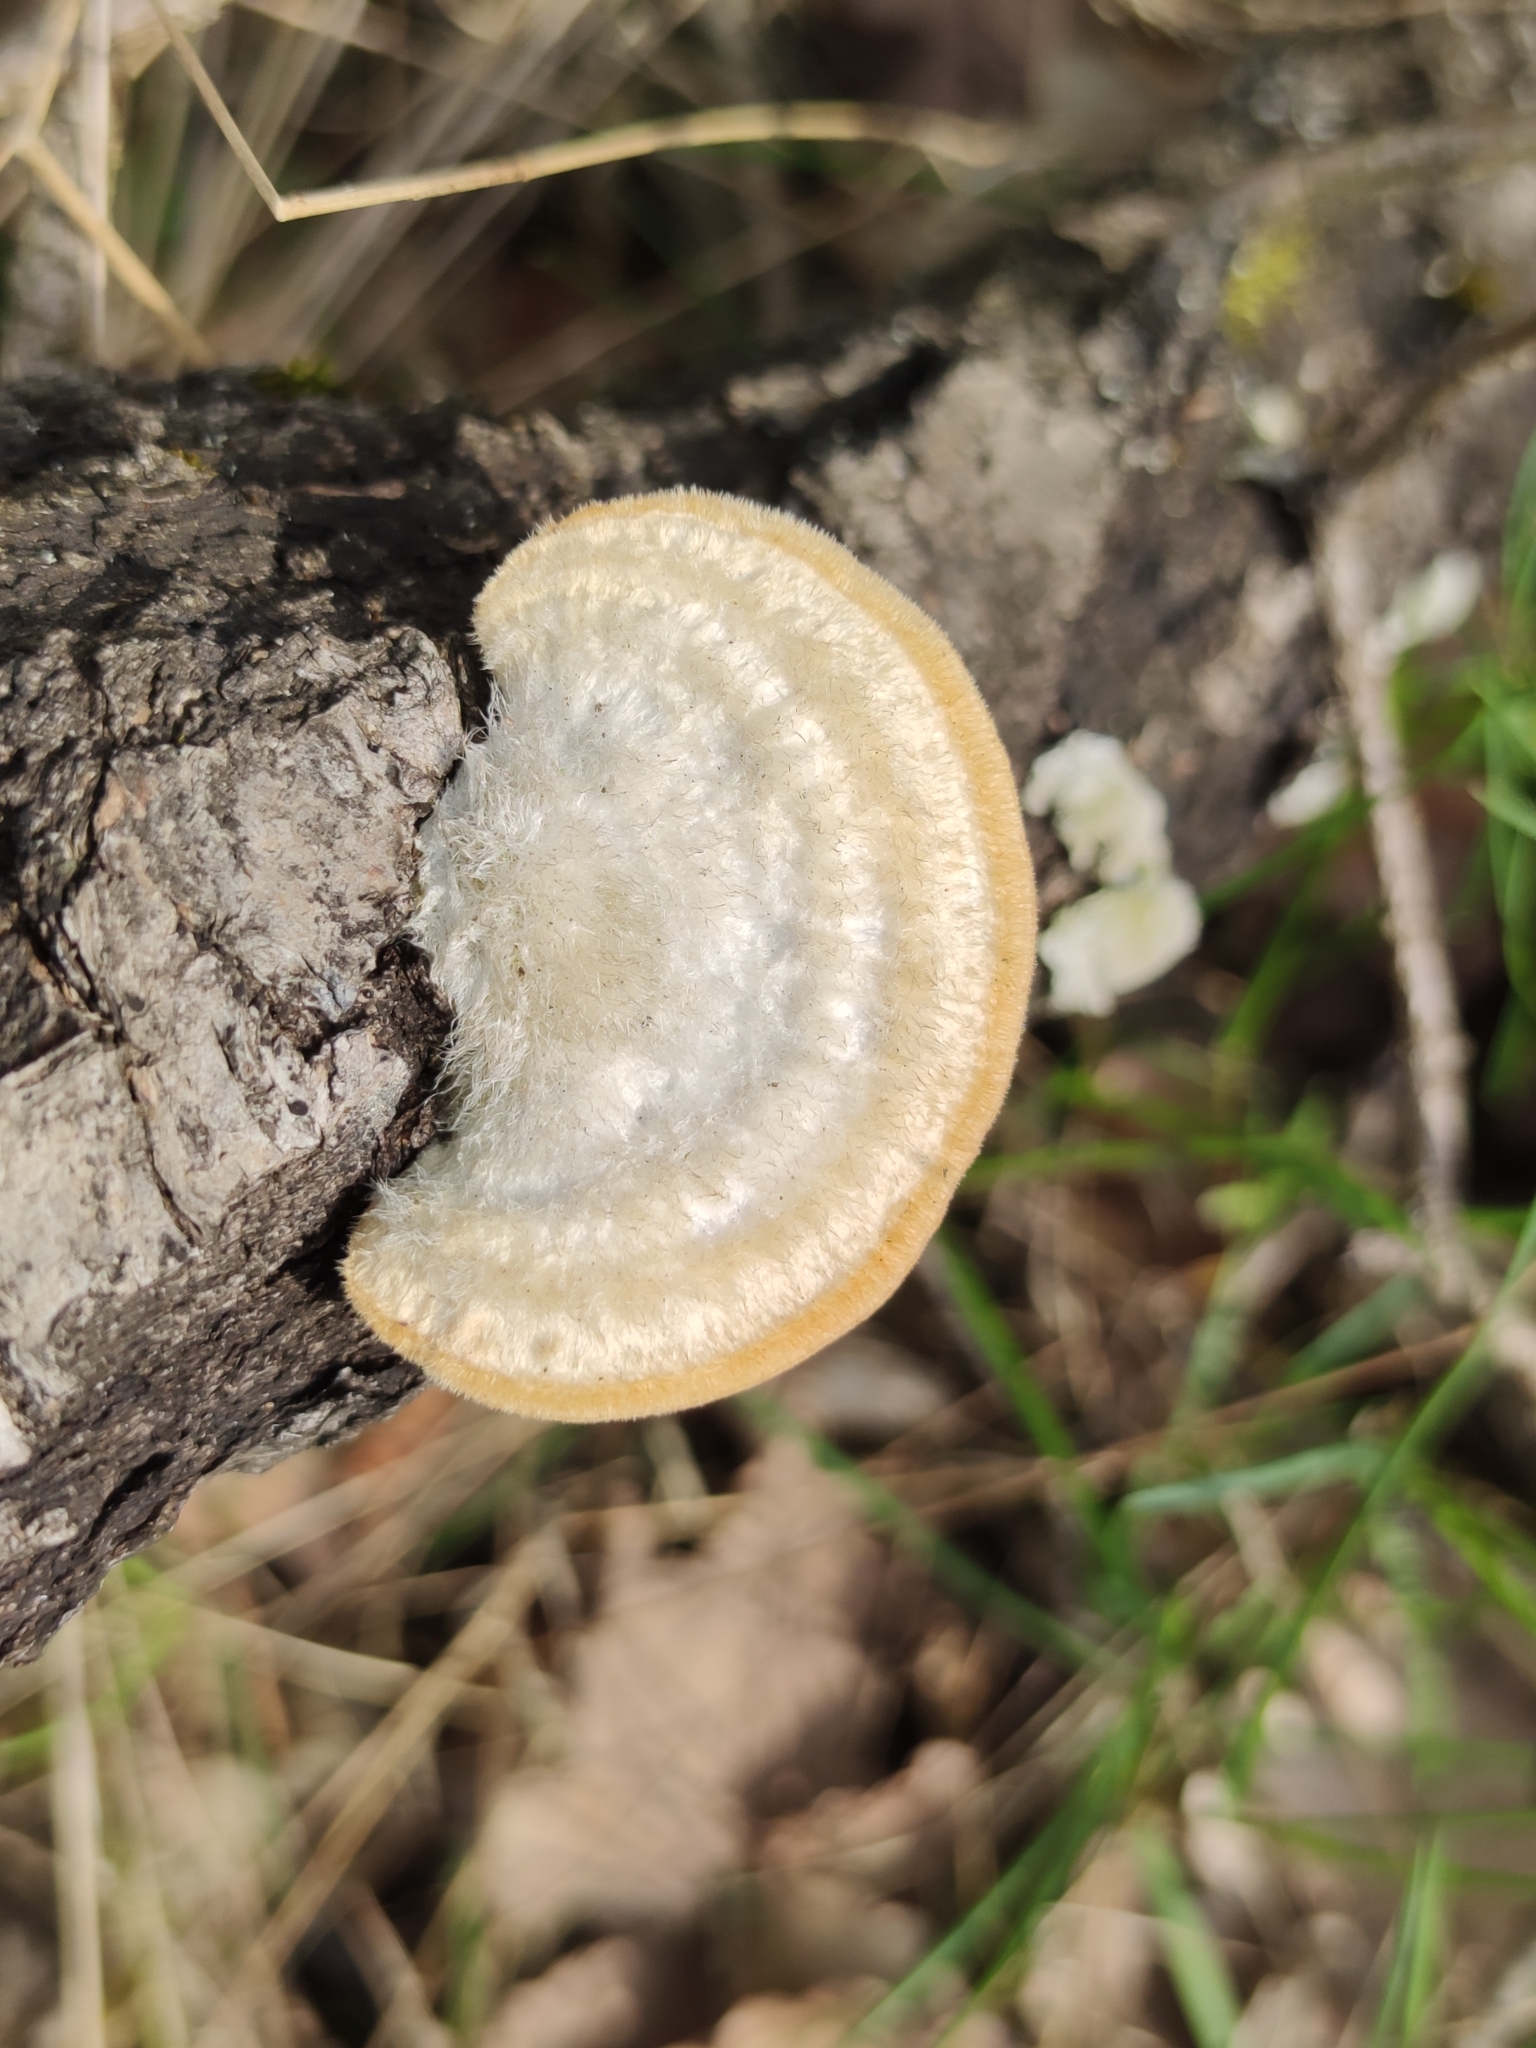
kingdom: Fungi
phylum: Basidiomycota
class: Agaricomycetes
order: Polyporales
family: Polyporaceae
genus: Trametes
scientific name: Trametes hirsuta
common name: Hairy bracket
